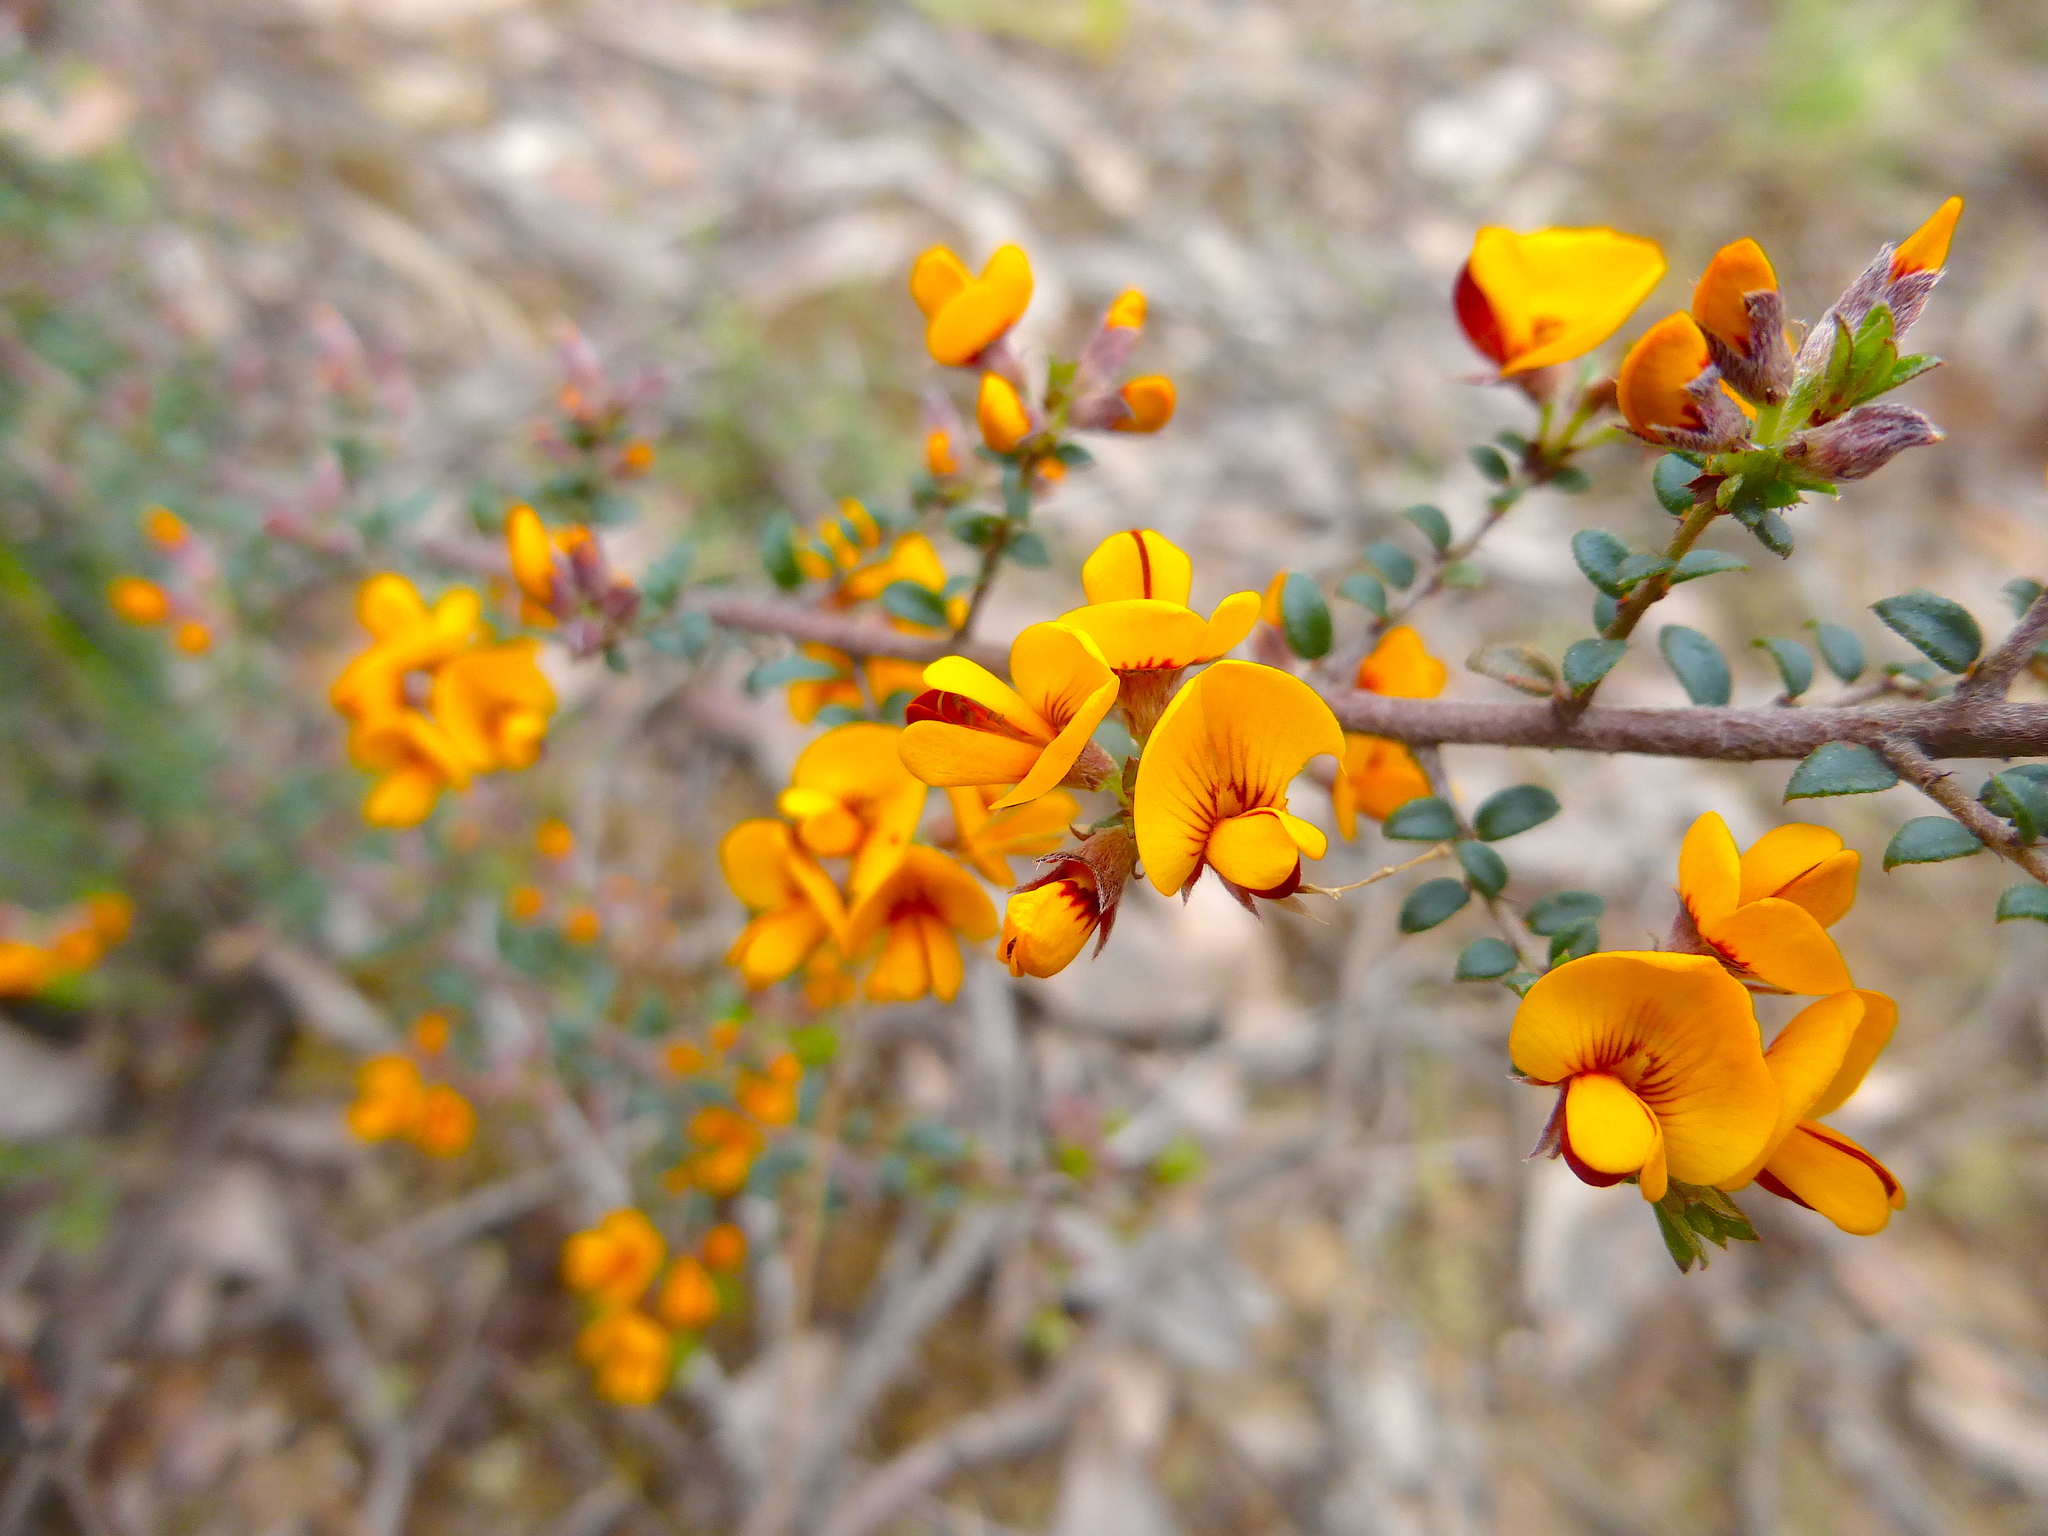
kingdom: Plantae
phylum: Tracheophyta
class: Magnoliopsida
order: Fabales
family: Fabaceae
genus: Pultenaea
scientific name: Pultenaea gunnii
